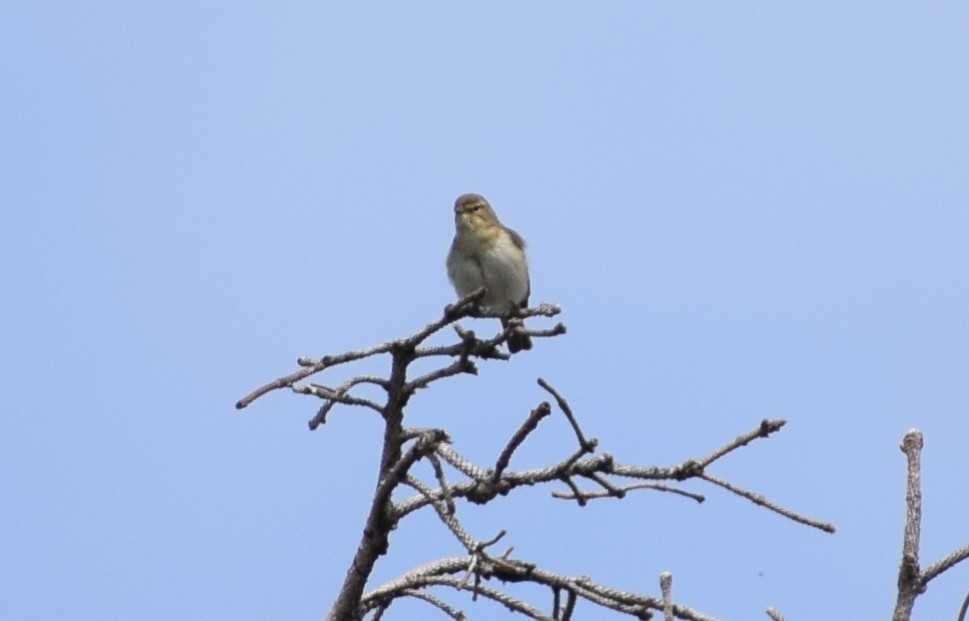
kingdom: Animalia
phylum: Chordata
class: Aves
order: Passeriformes
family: Phylloscopidae
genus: Phylloscopus
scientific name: Phylloscopus trochilus
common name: Willow warbler
